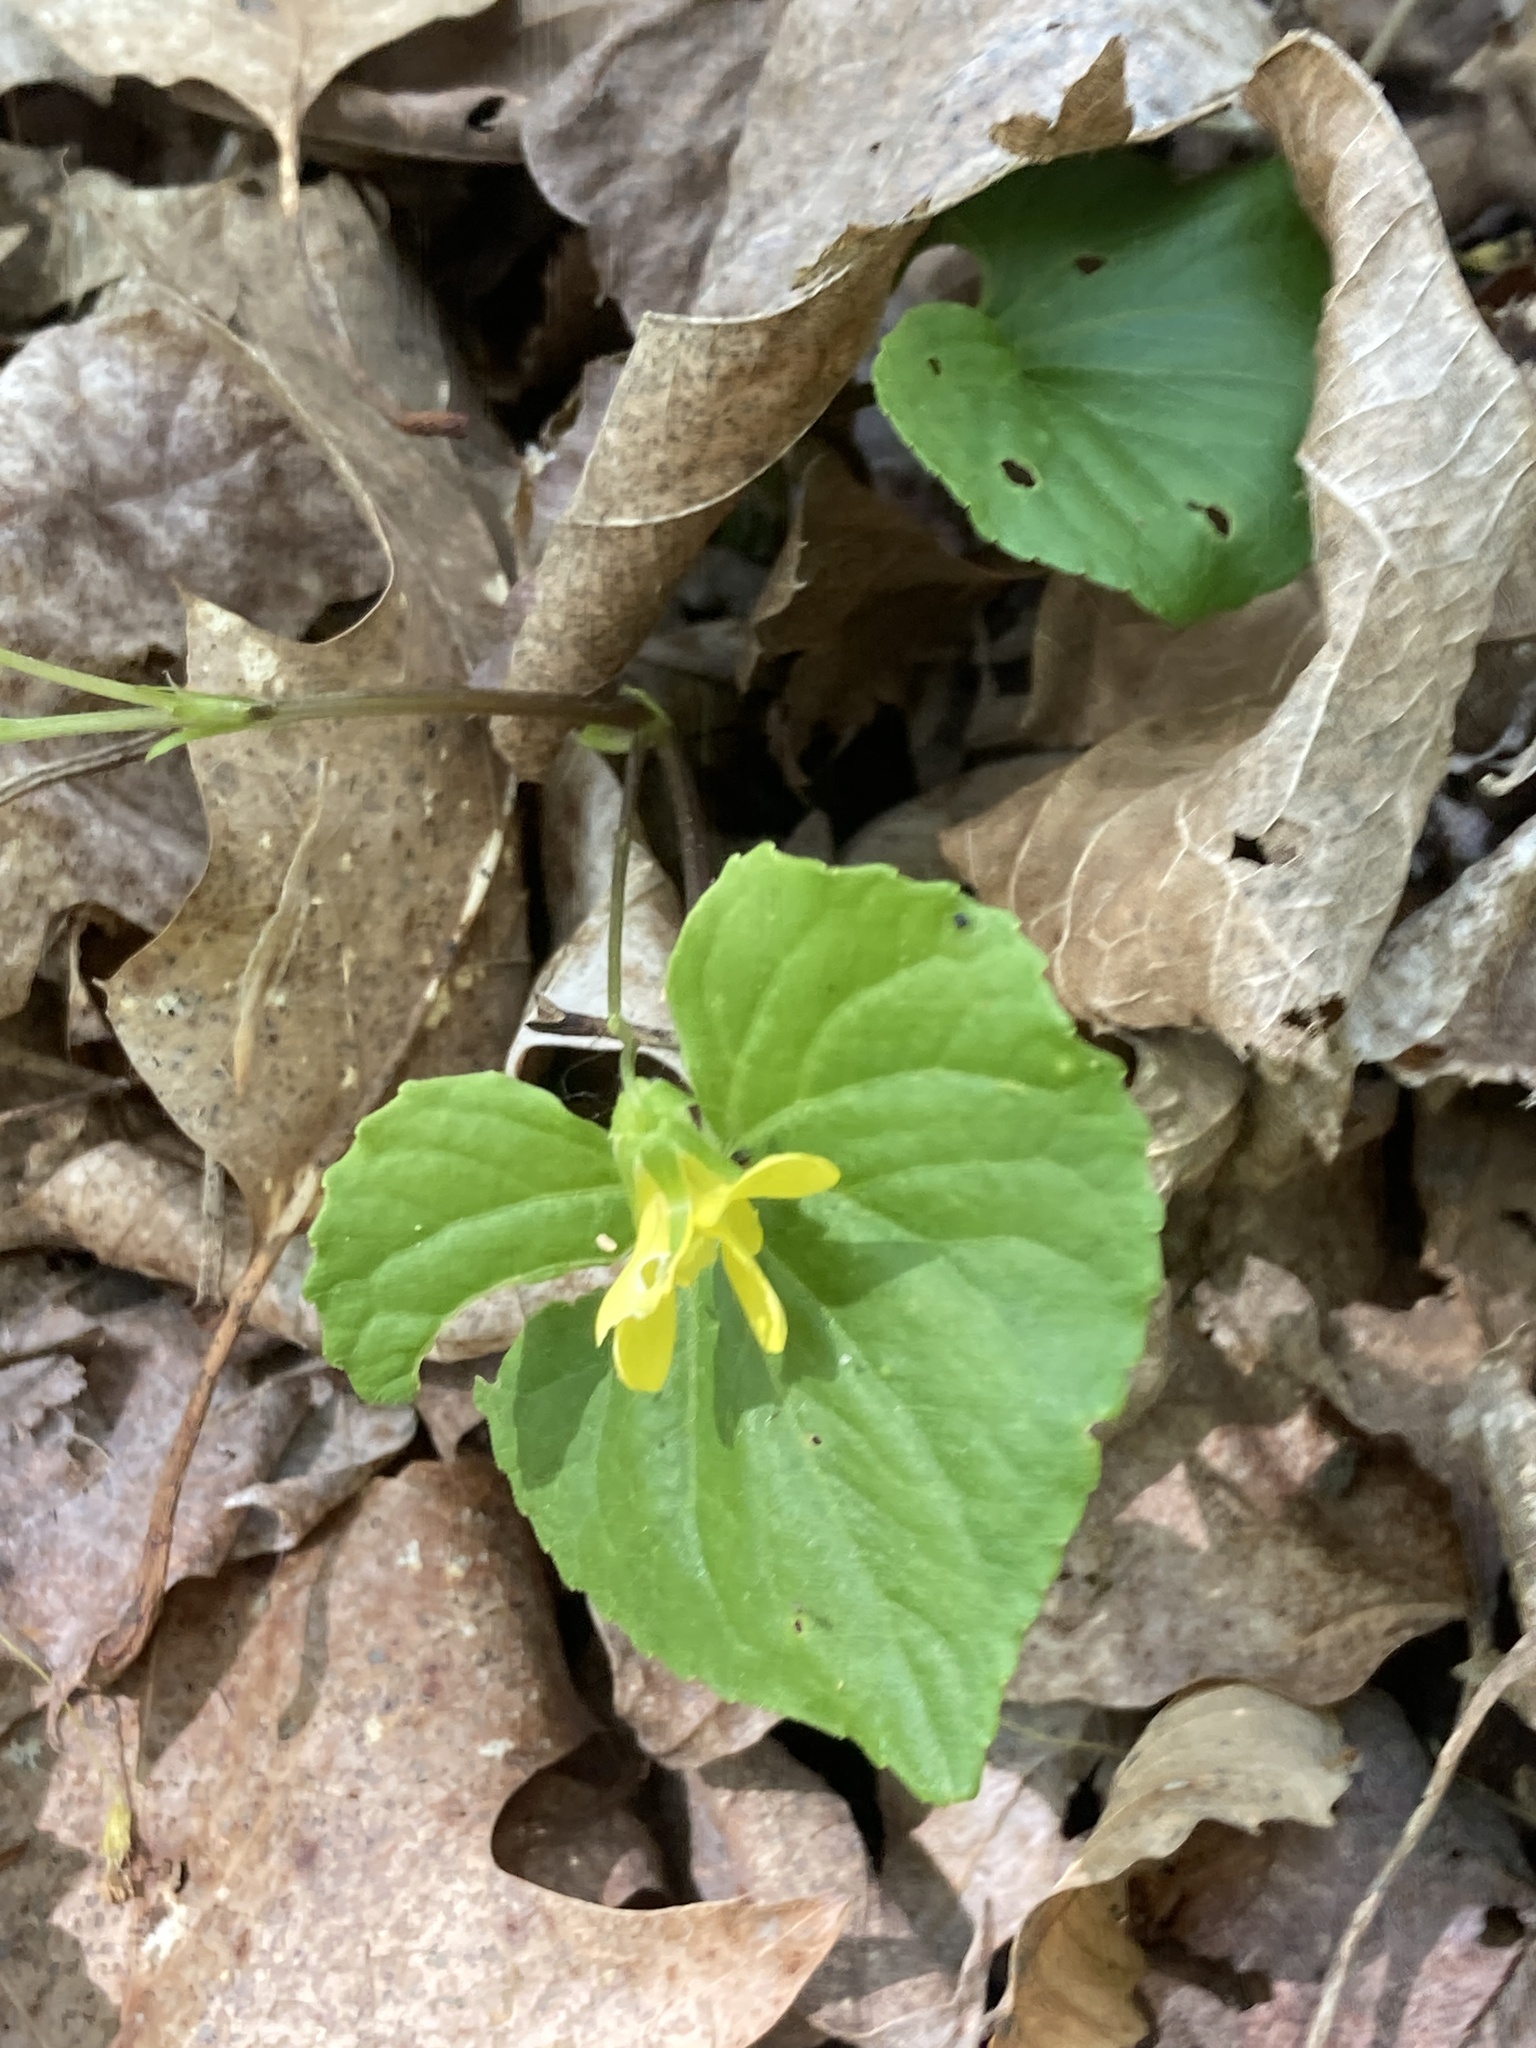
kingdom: Plantae
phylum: Tracheophyta
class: Magnoliopsida
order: Malpighiales
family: Violaceae
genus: Viola
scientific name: Viola eriocarpa
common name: Smooth yellow violet
